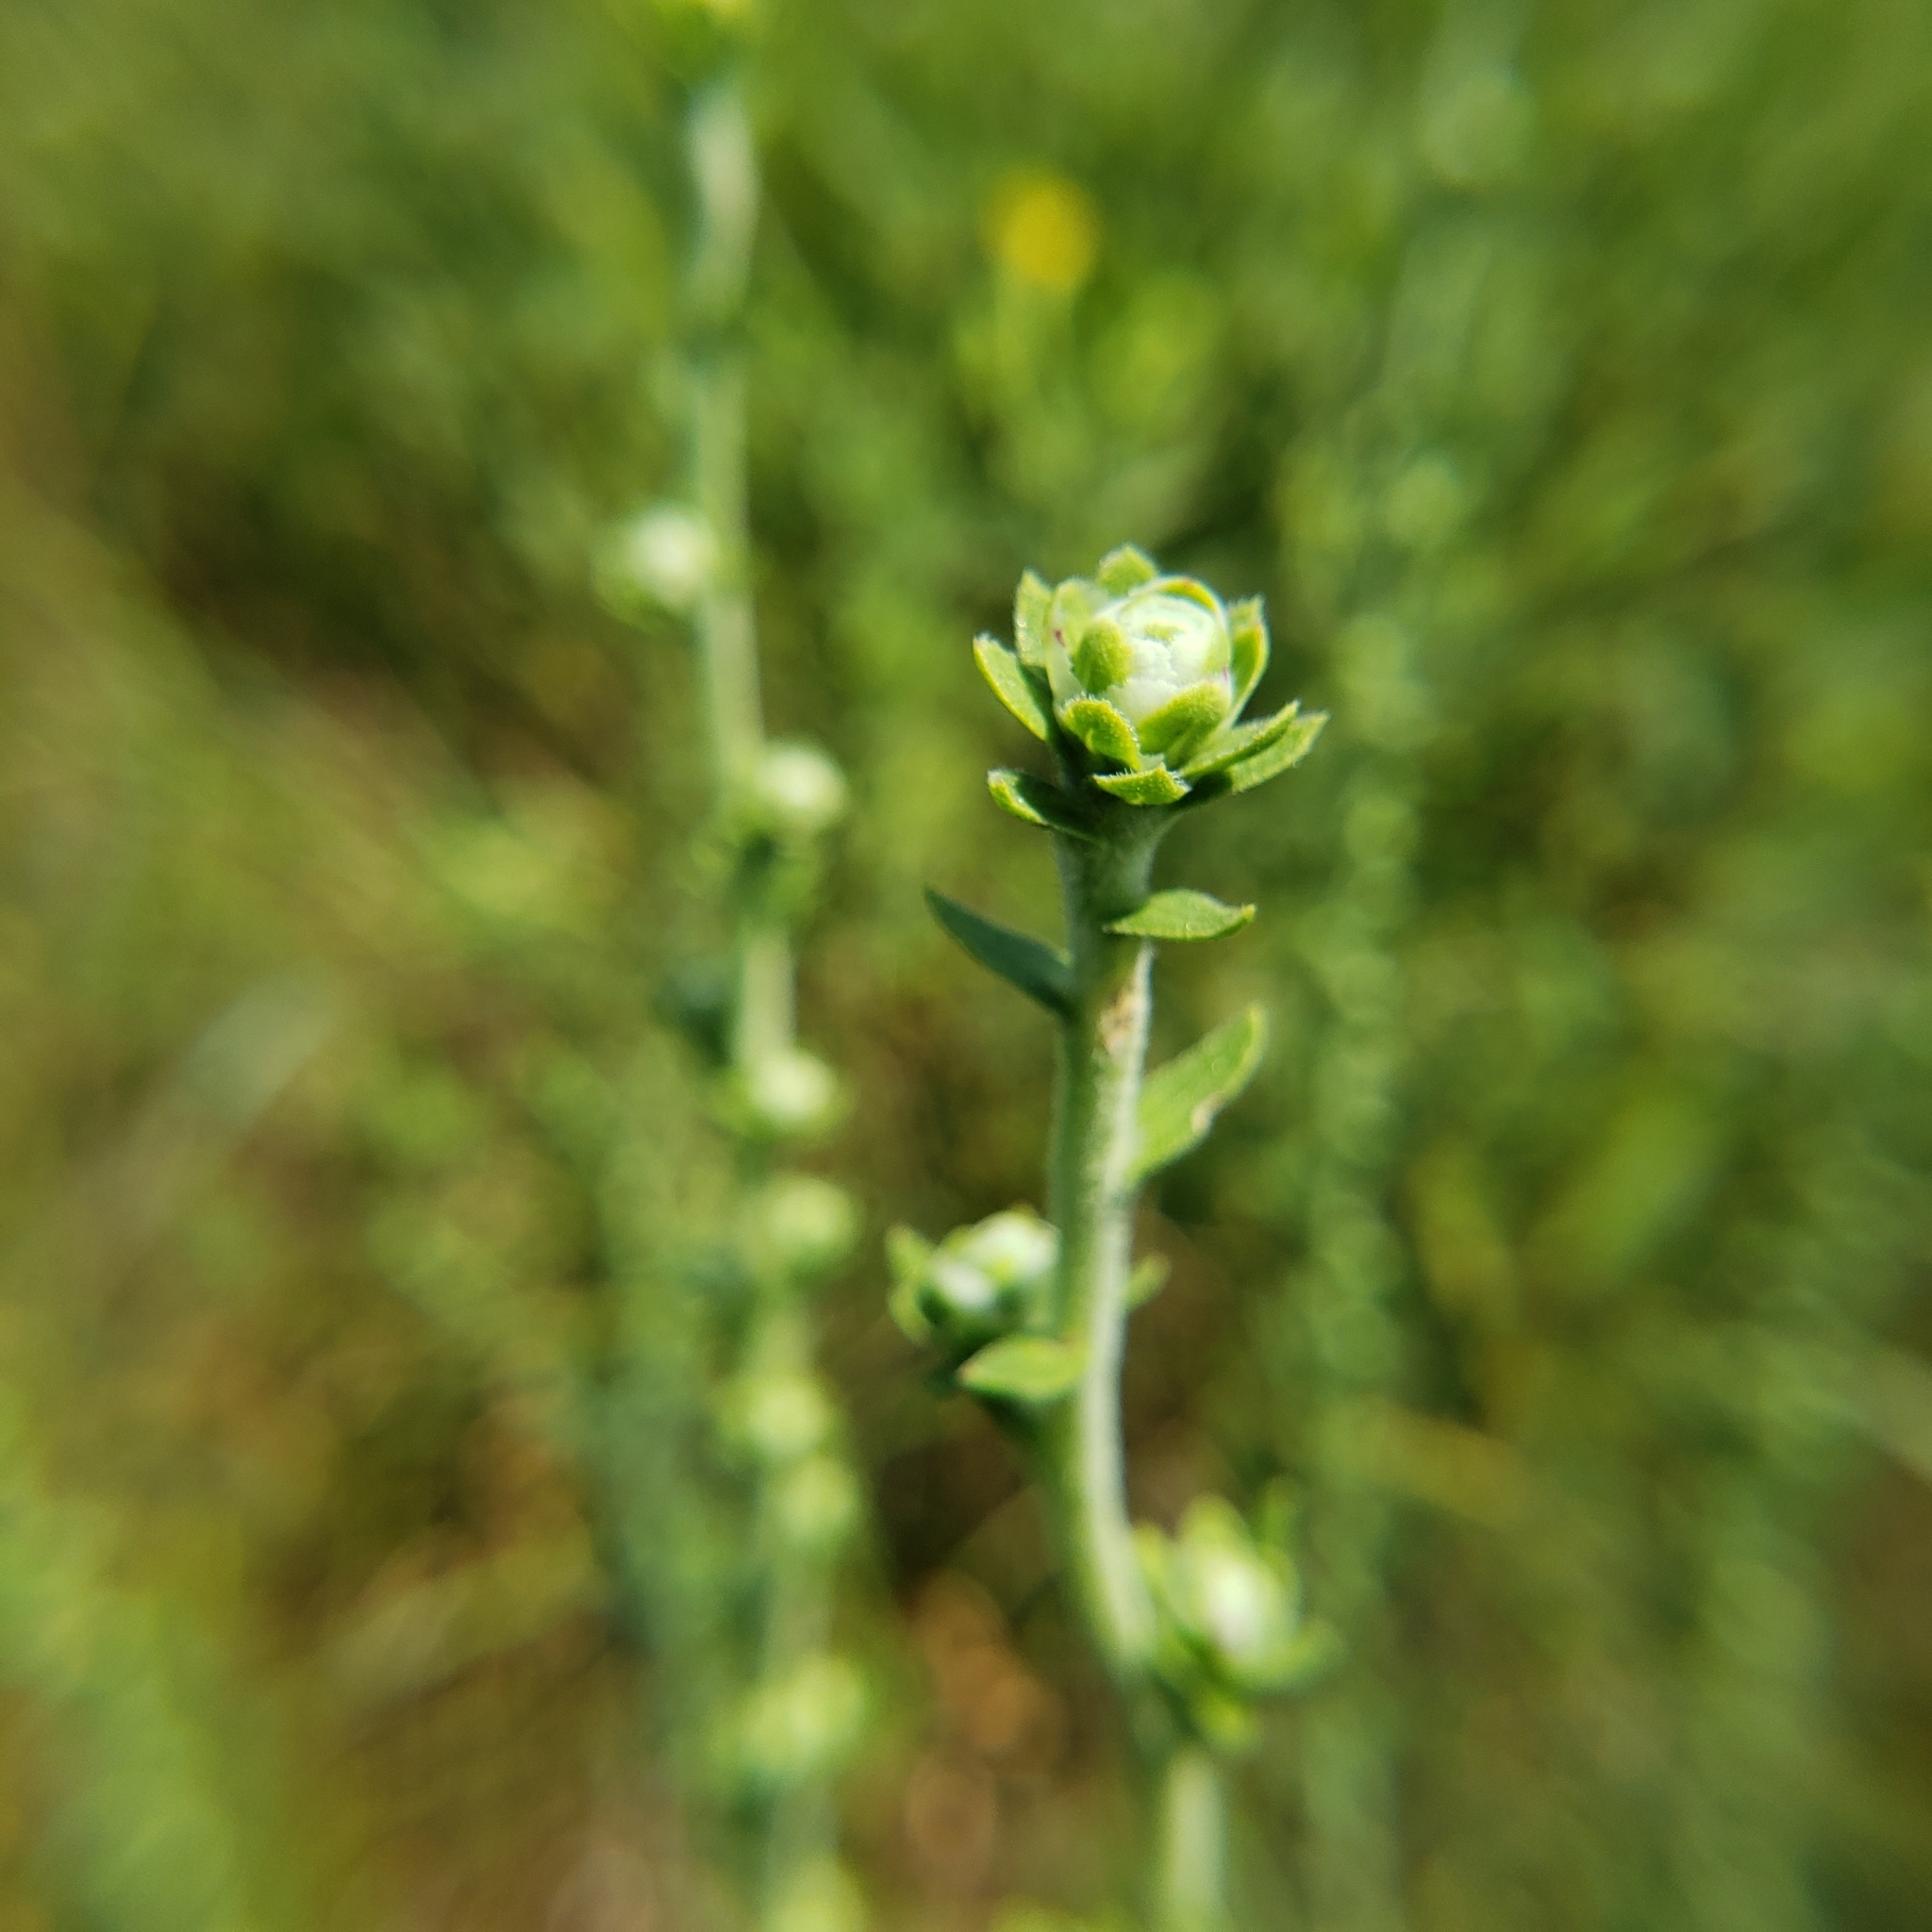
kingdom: Plantae
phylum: Tracheophyta
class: Magnoliopsida
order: Asterales
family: Asteraceae
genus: Liatris
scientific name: Liatris aspera
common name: Lacerate blazing-star
